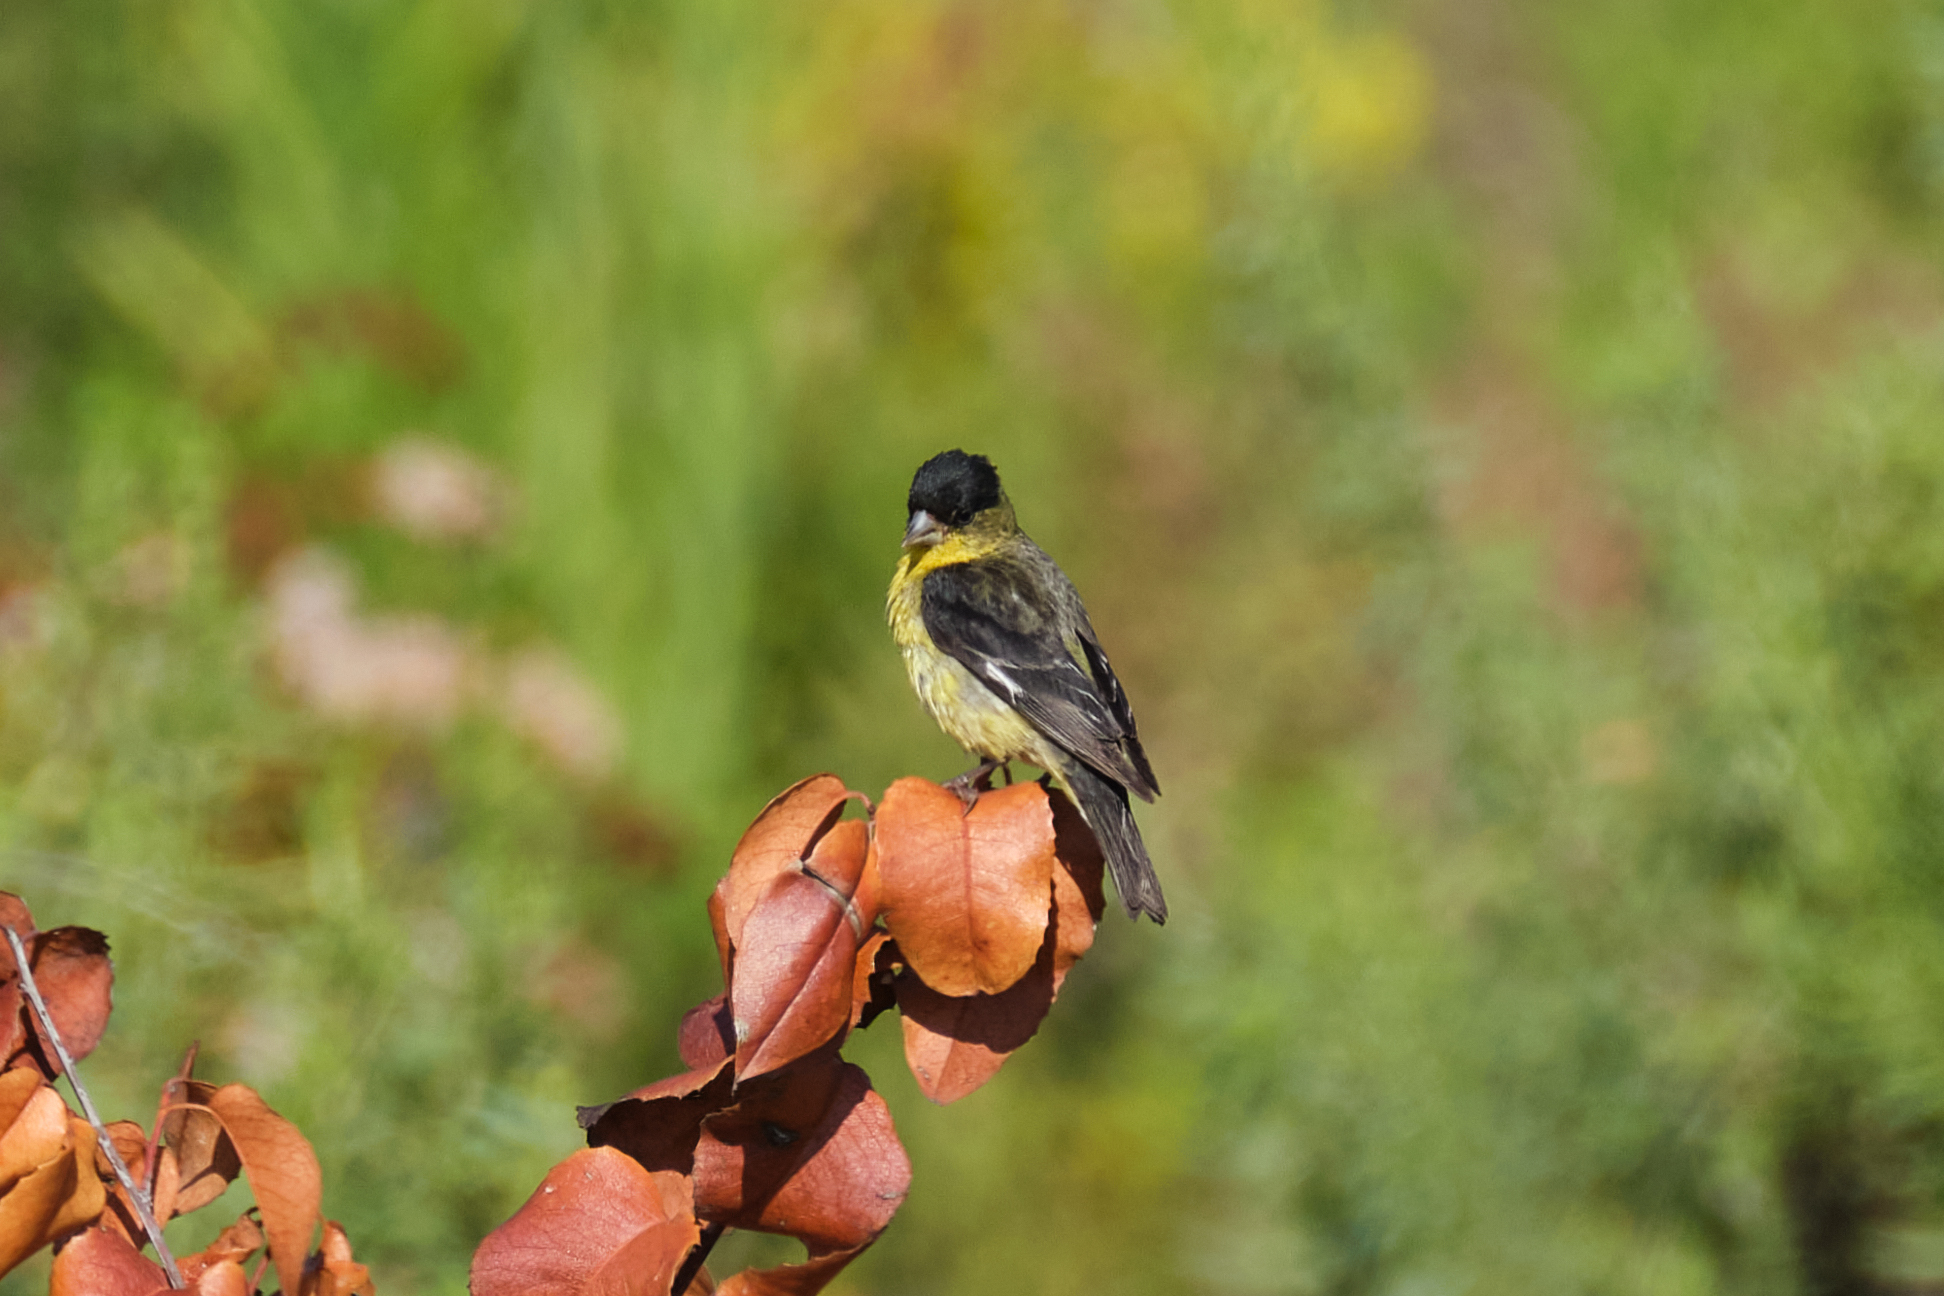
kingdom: Animalia
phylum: Chordata
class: Aves
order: Passeriformes
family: Fringillidae
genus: Spinus
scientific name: Spinus psaltria
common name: Lesser goldfinch
